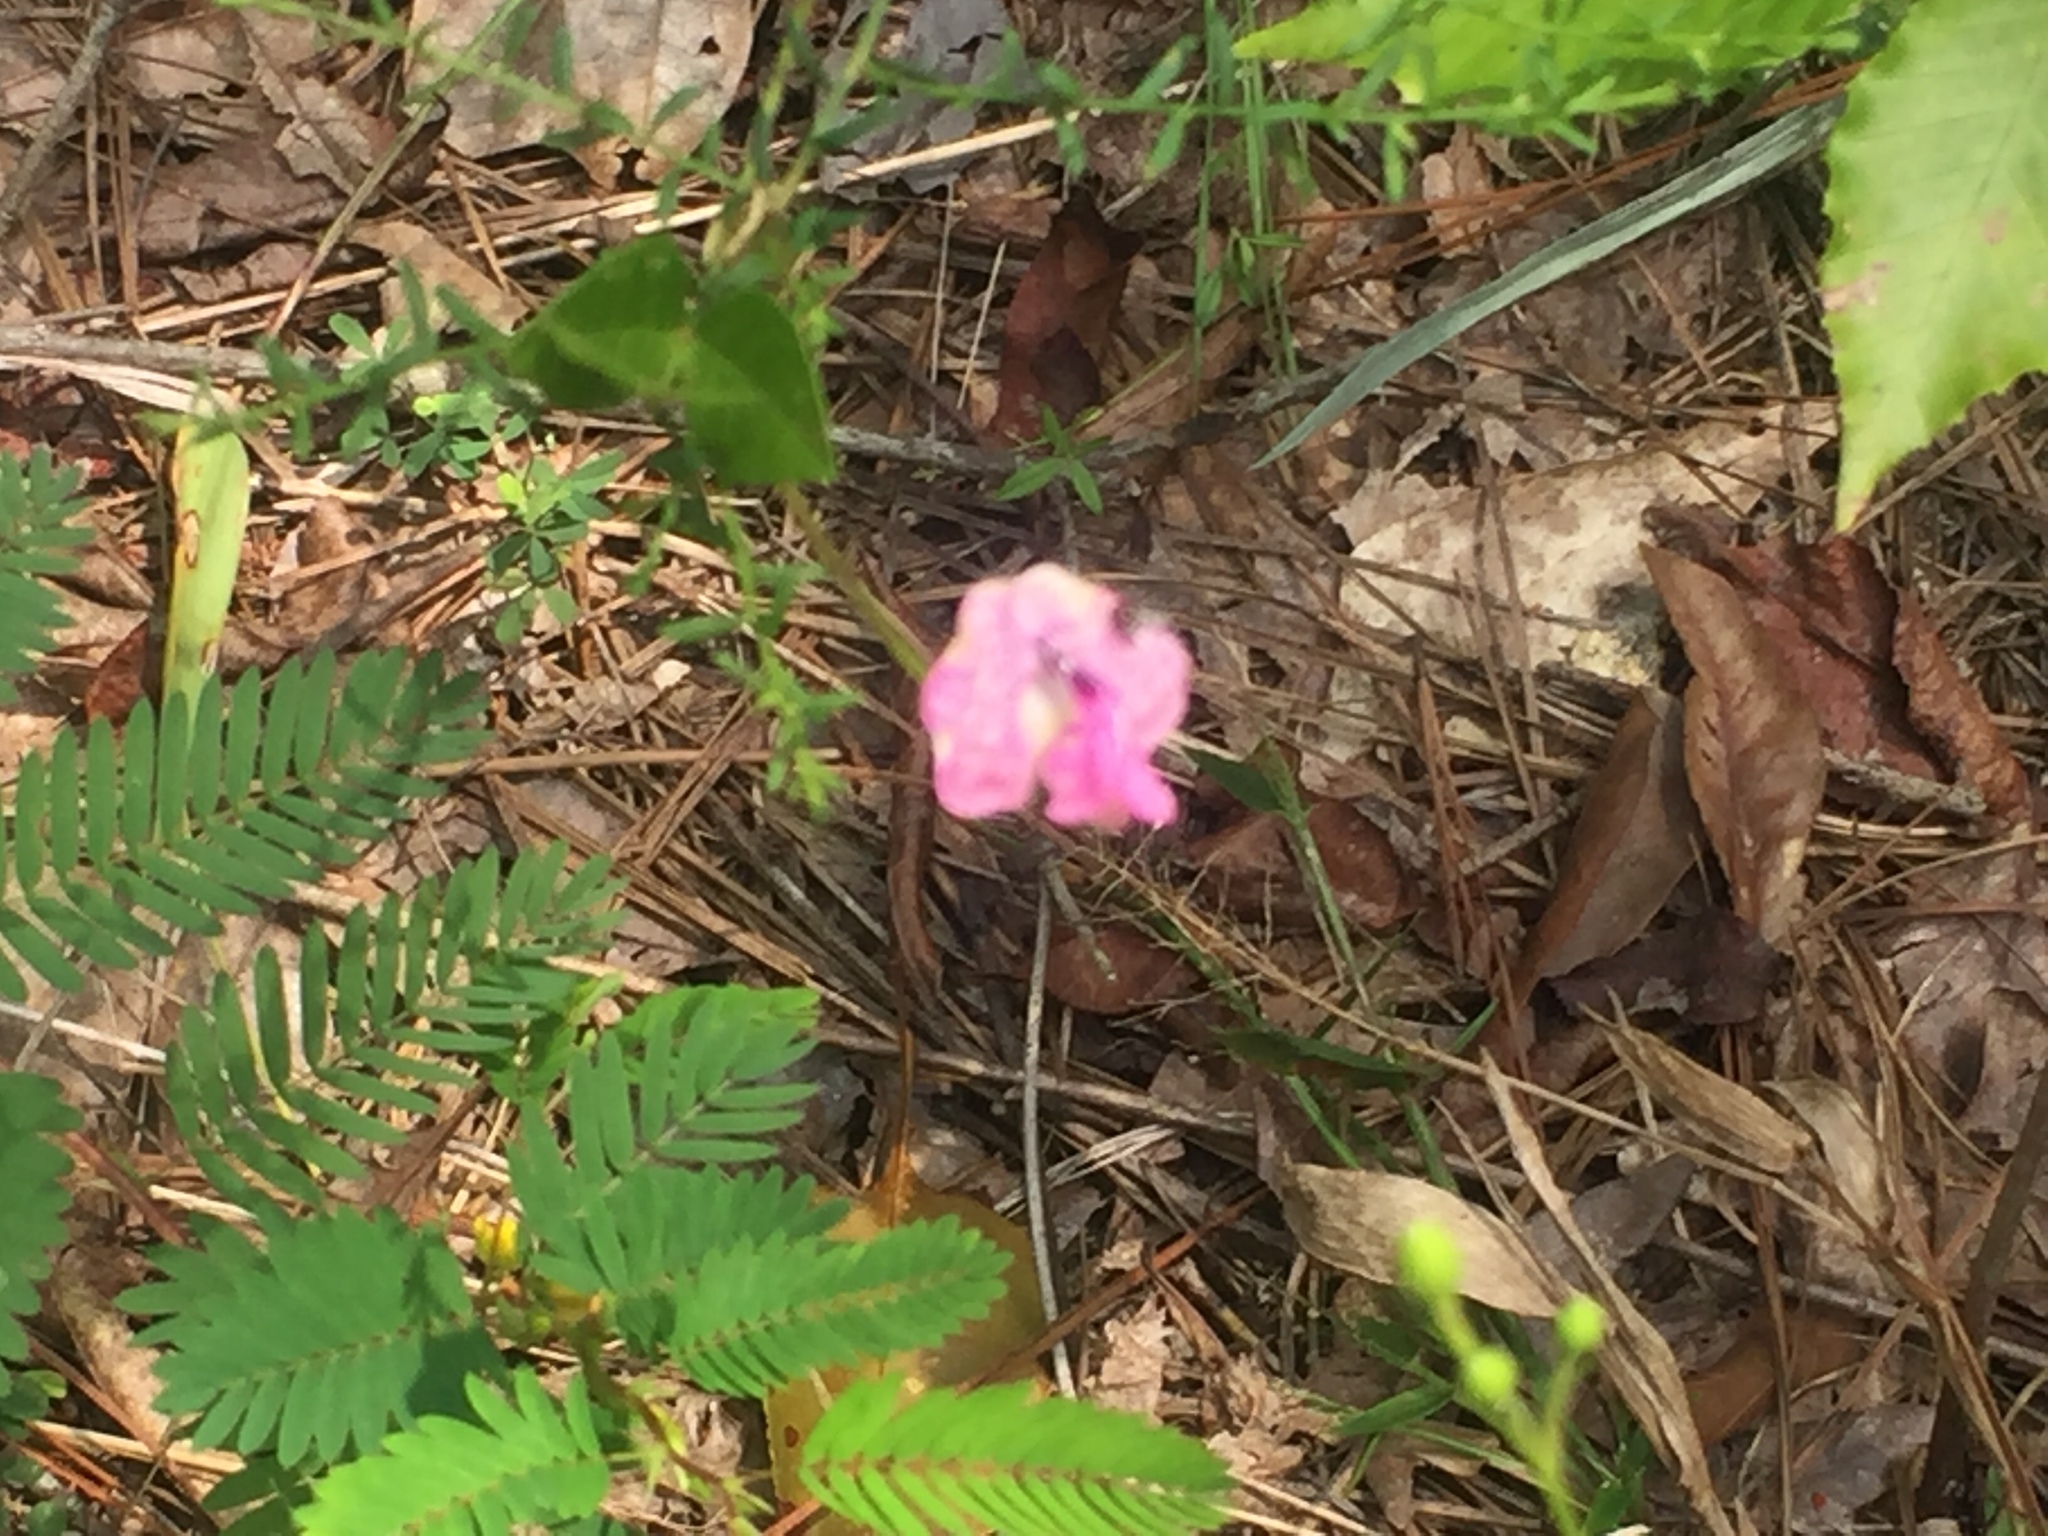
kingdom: Plantae
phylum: Tracheophyta
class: Magnoliopsida
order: Fabales
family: Fabaceae
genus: Strophostyles
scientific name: Strophostyles umbellata
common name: Perennial wild bean
